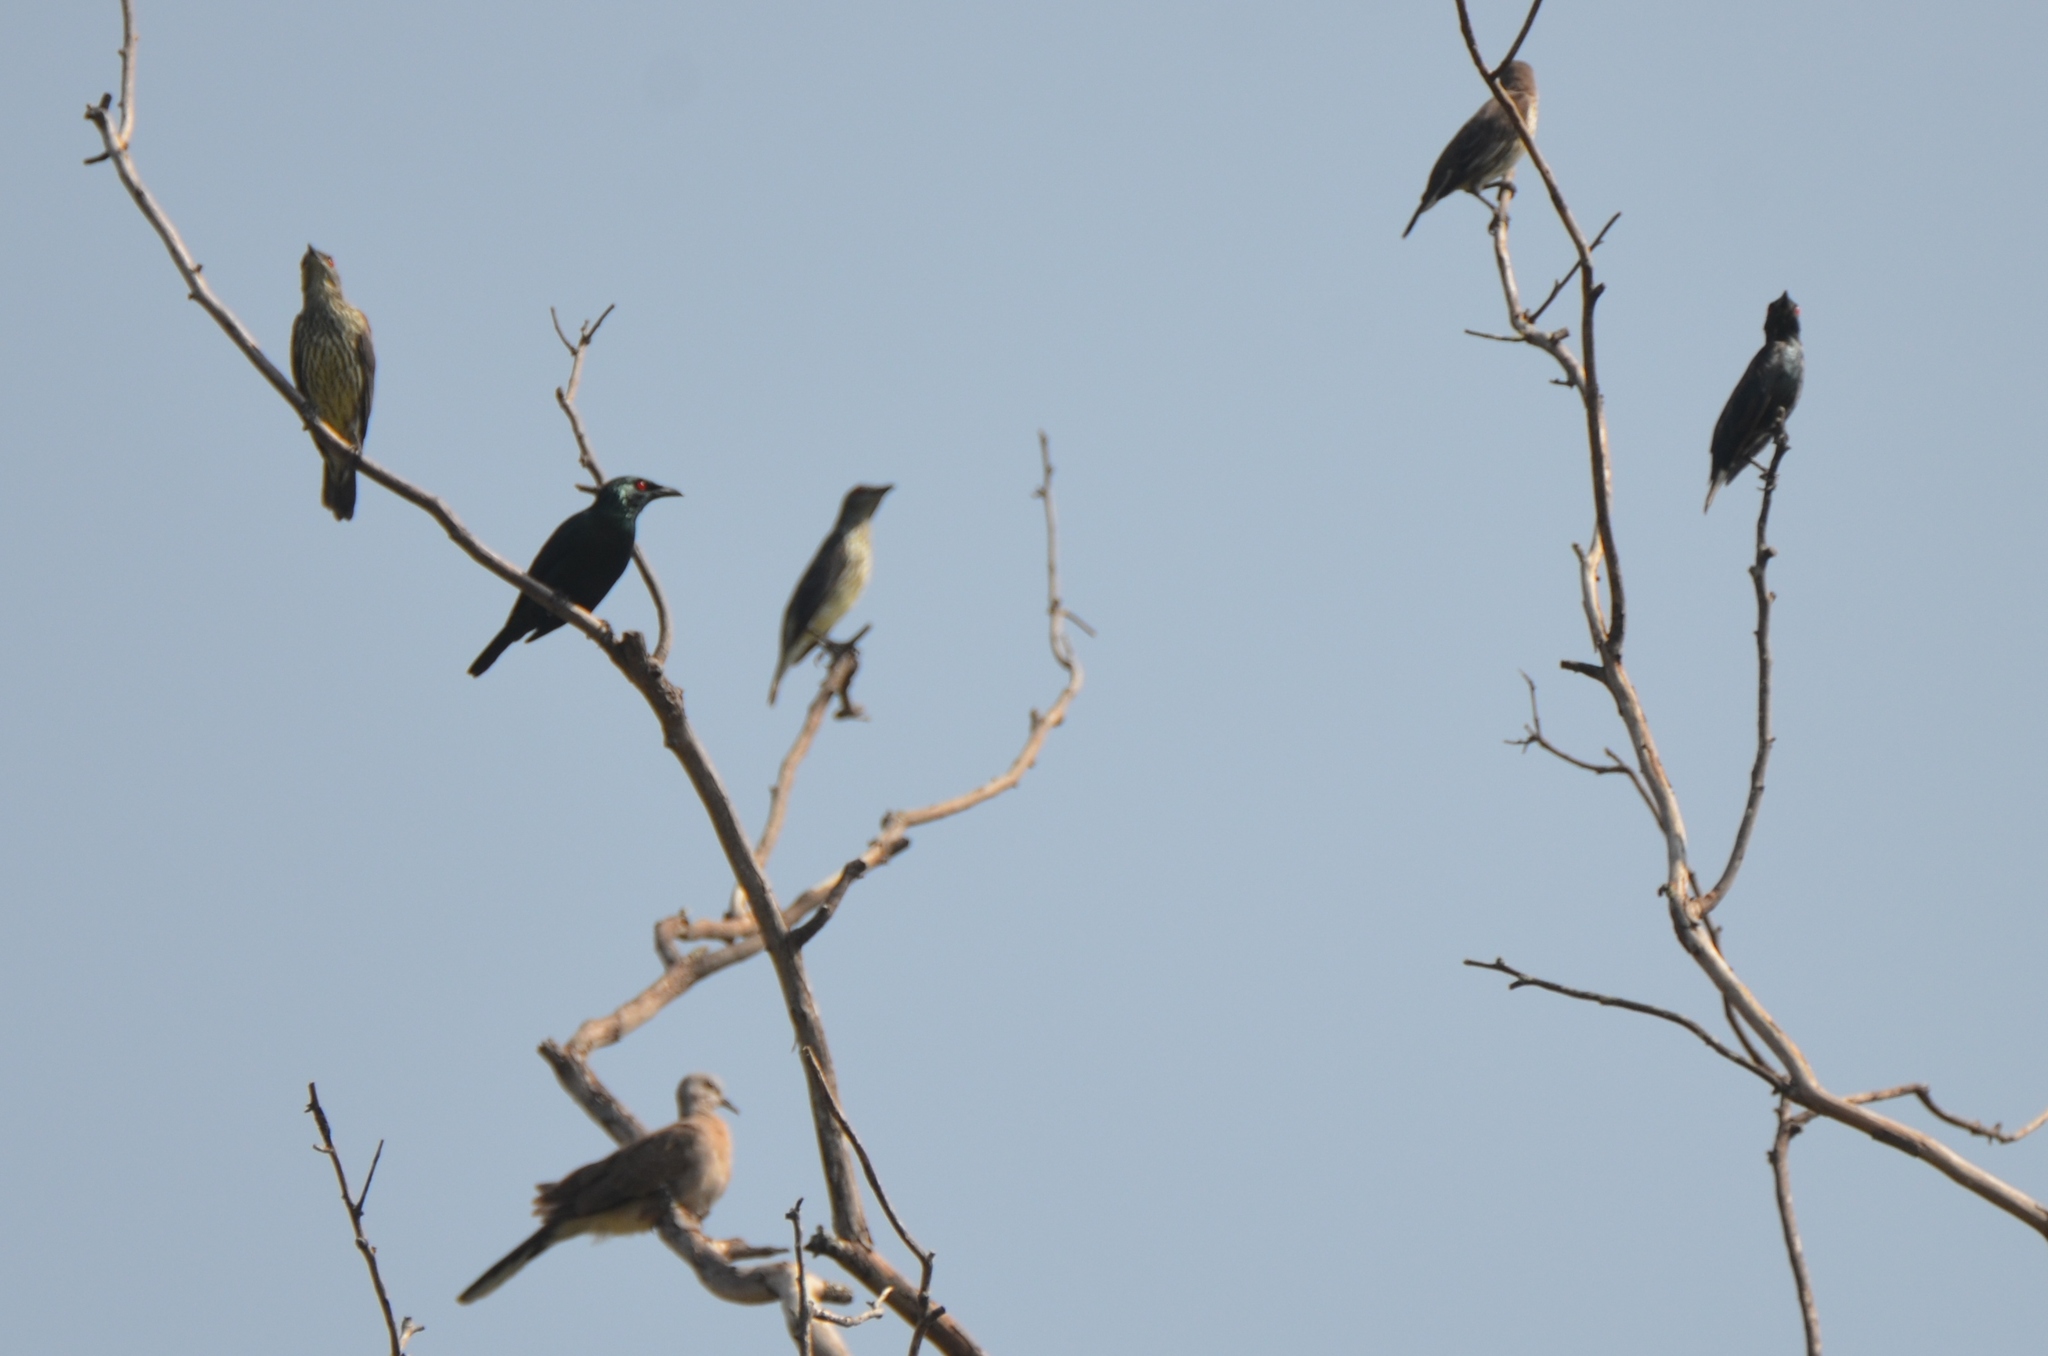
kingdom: Animalia
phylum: Chordata
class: Aves
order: Passeriformes
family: Sturnidae
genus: Aplonis
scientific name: Aplonis panayensis
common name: Asian glossy starling
